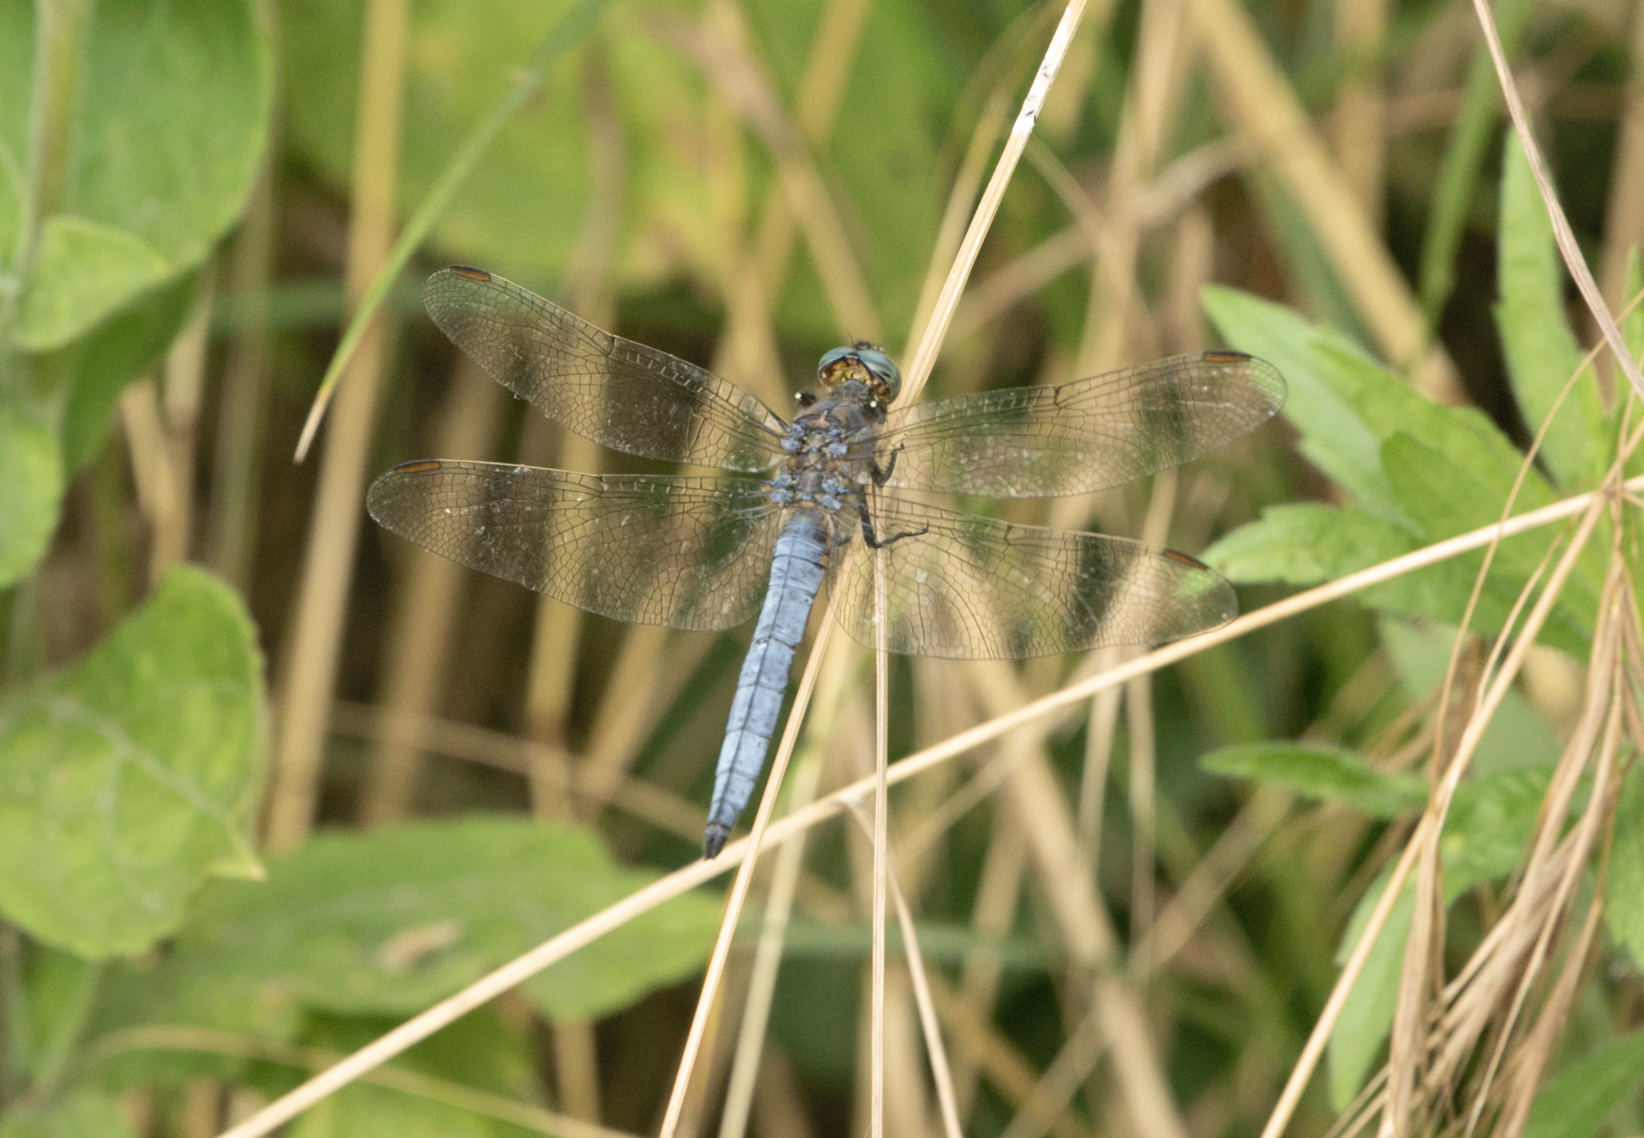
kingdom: Animalia
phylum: Arthropoda
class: Insecta
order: Odonata
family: Libellulidae
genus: Orthetrum
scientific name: Orthetrum coerulescens
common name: Keeled skimmer
